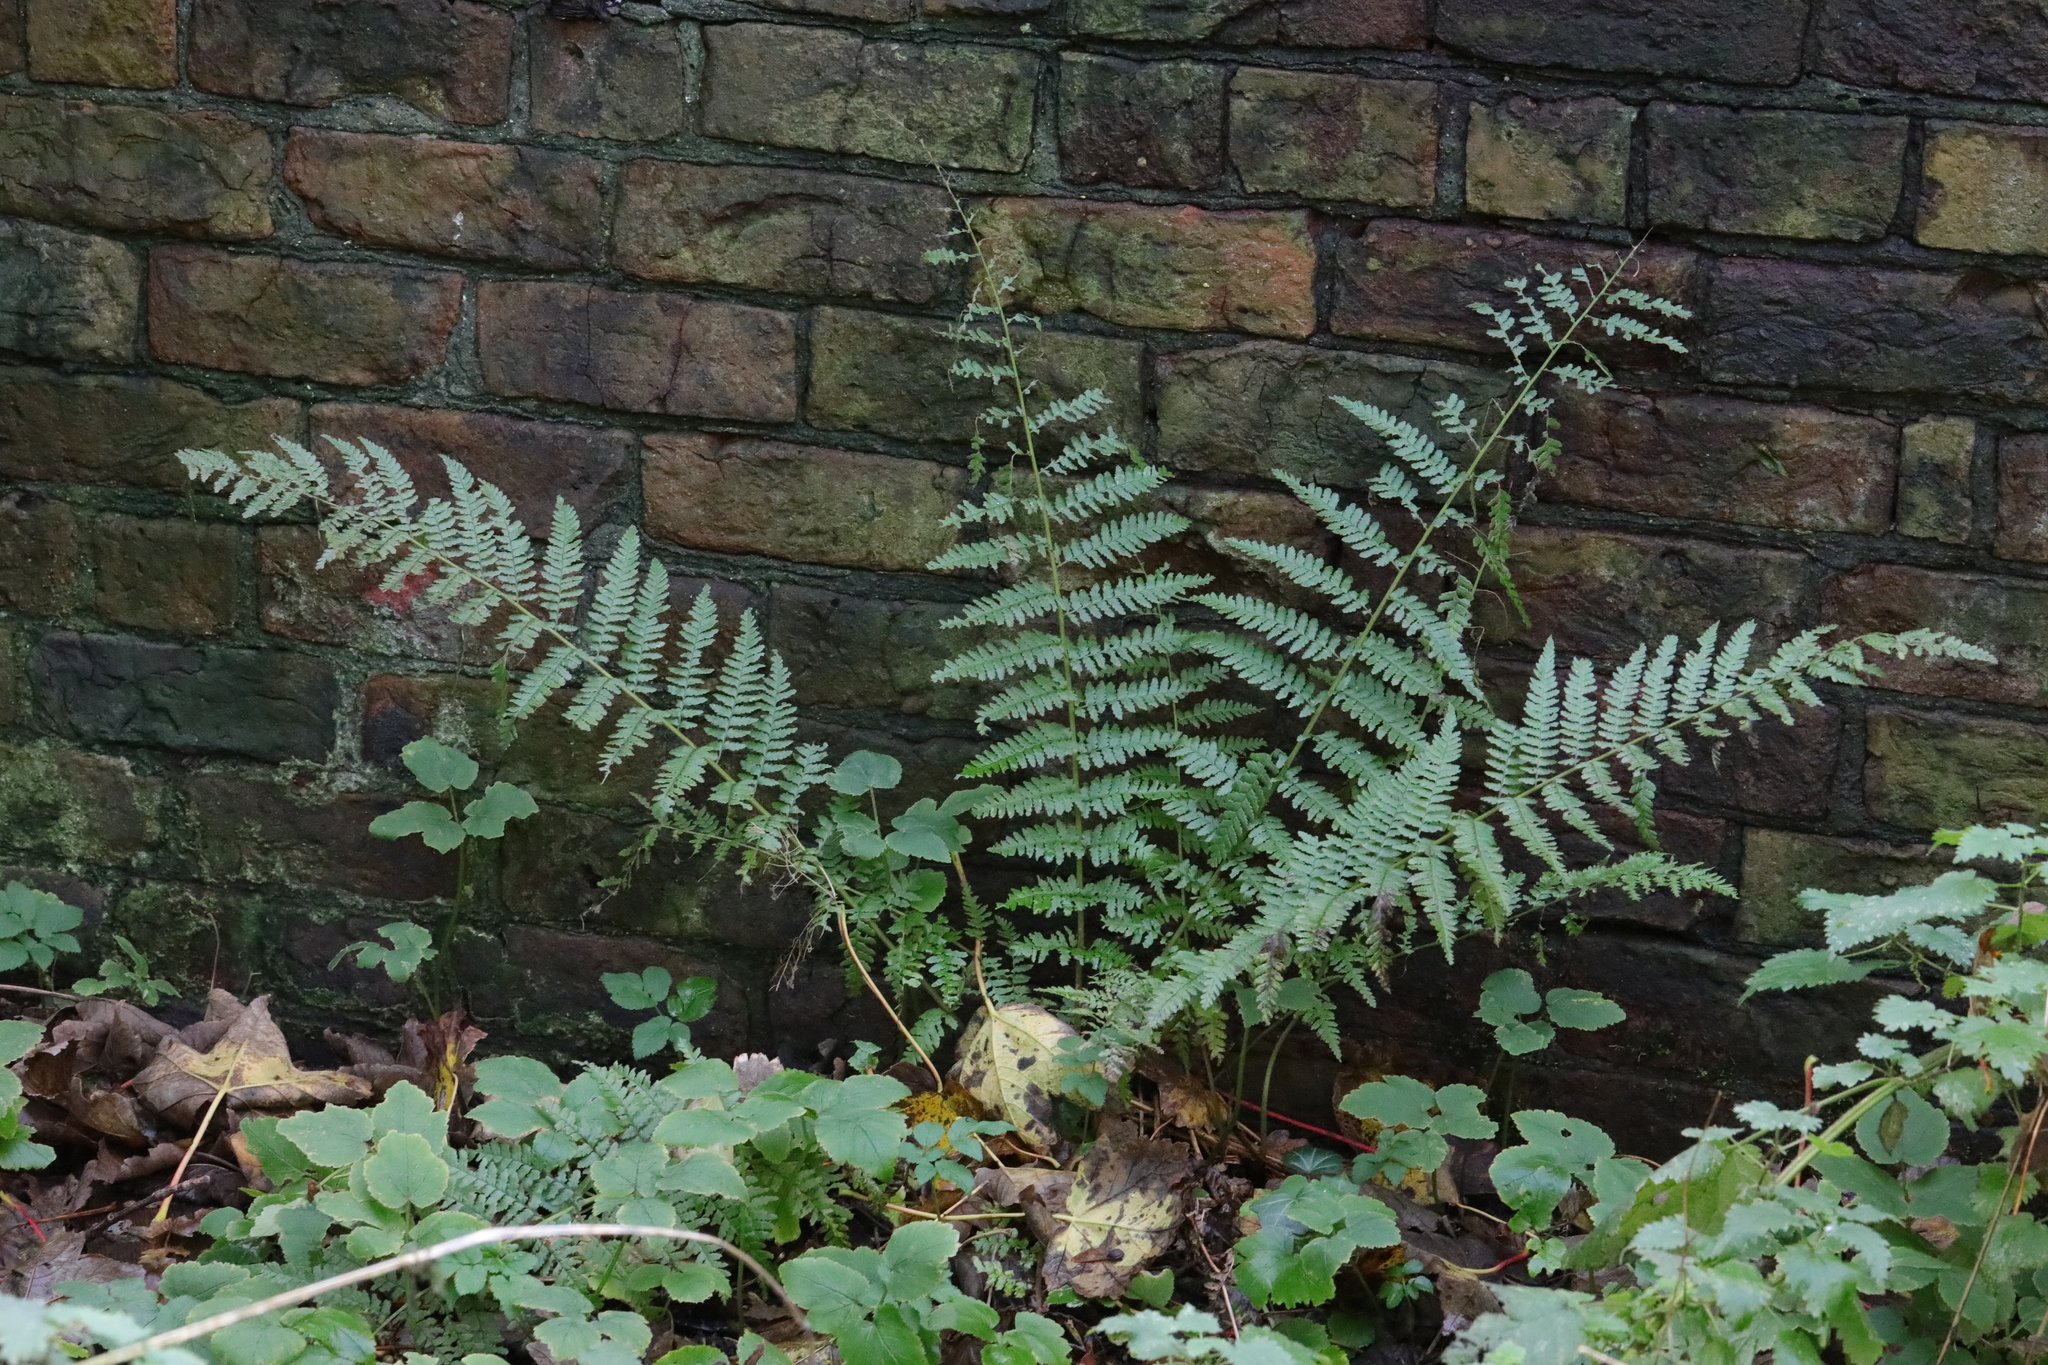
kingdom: Plantae
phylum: Tracheophyta
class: Polypodiopsida
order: Polypodiales
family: Dryopteridaceae
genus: Dryopteris
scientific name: Dryopteris filix-mas
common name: Male fern
